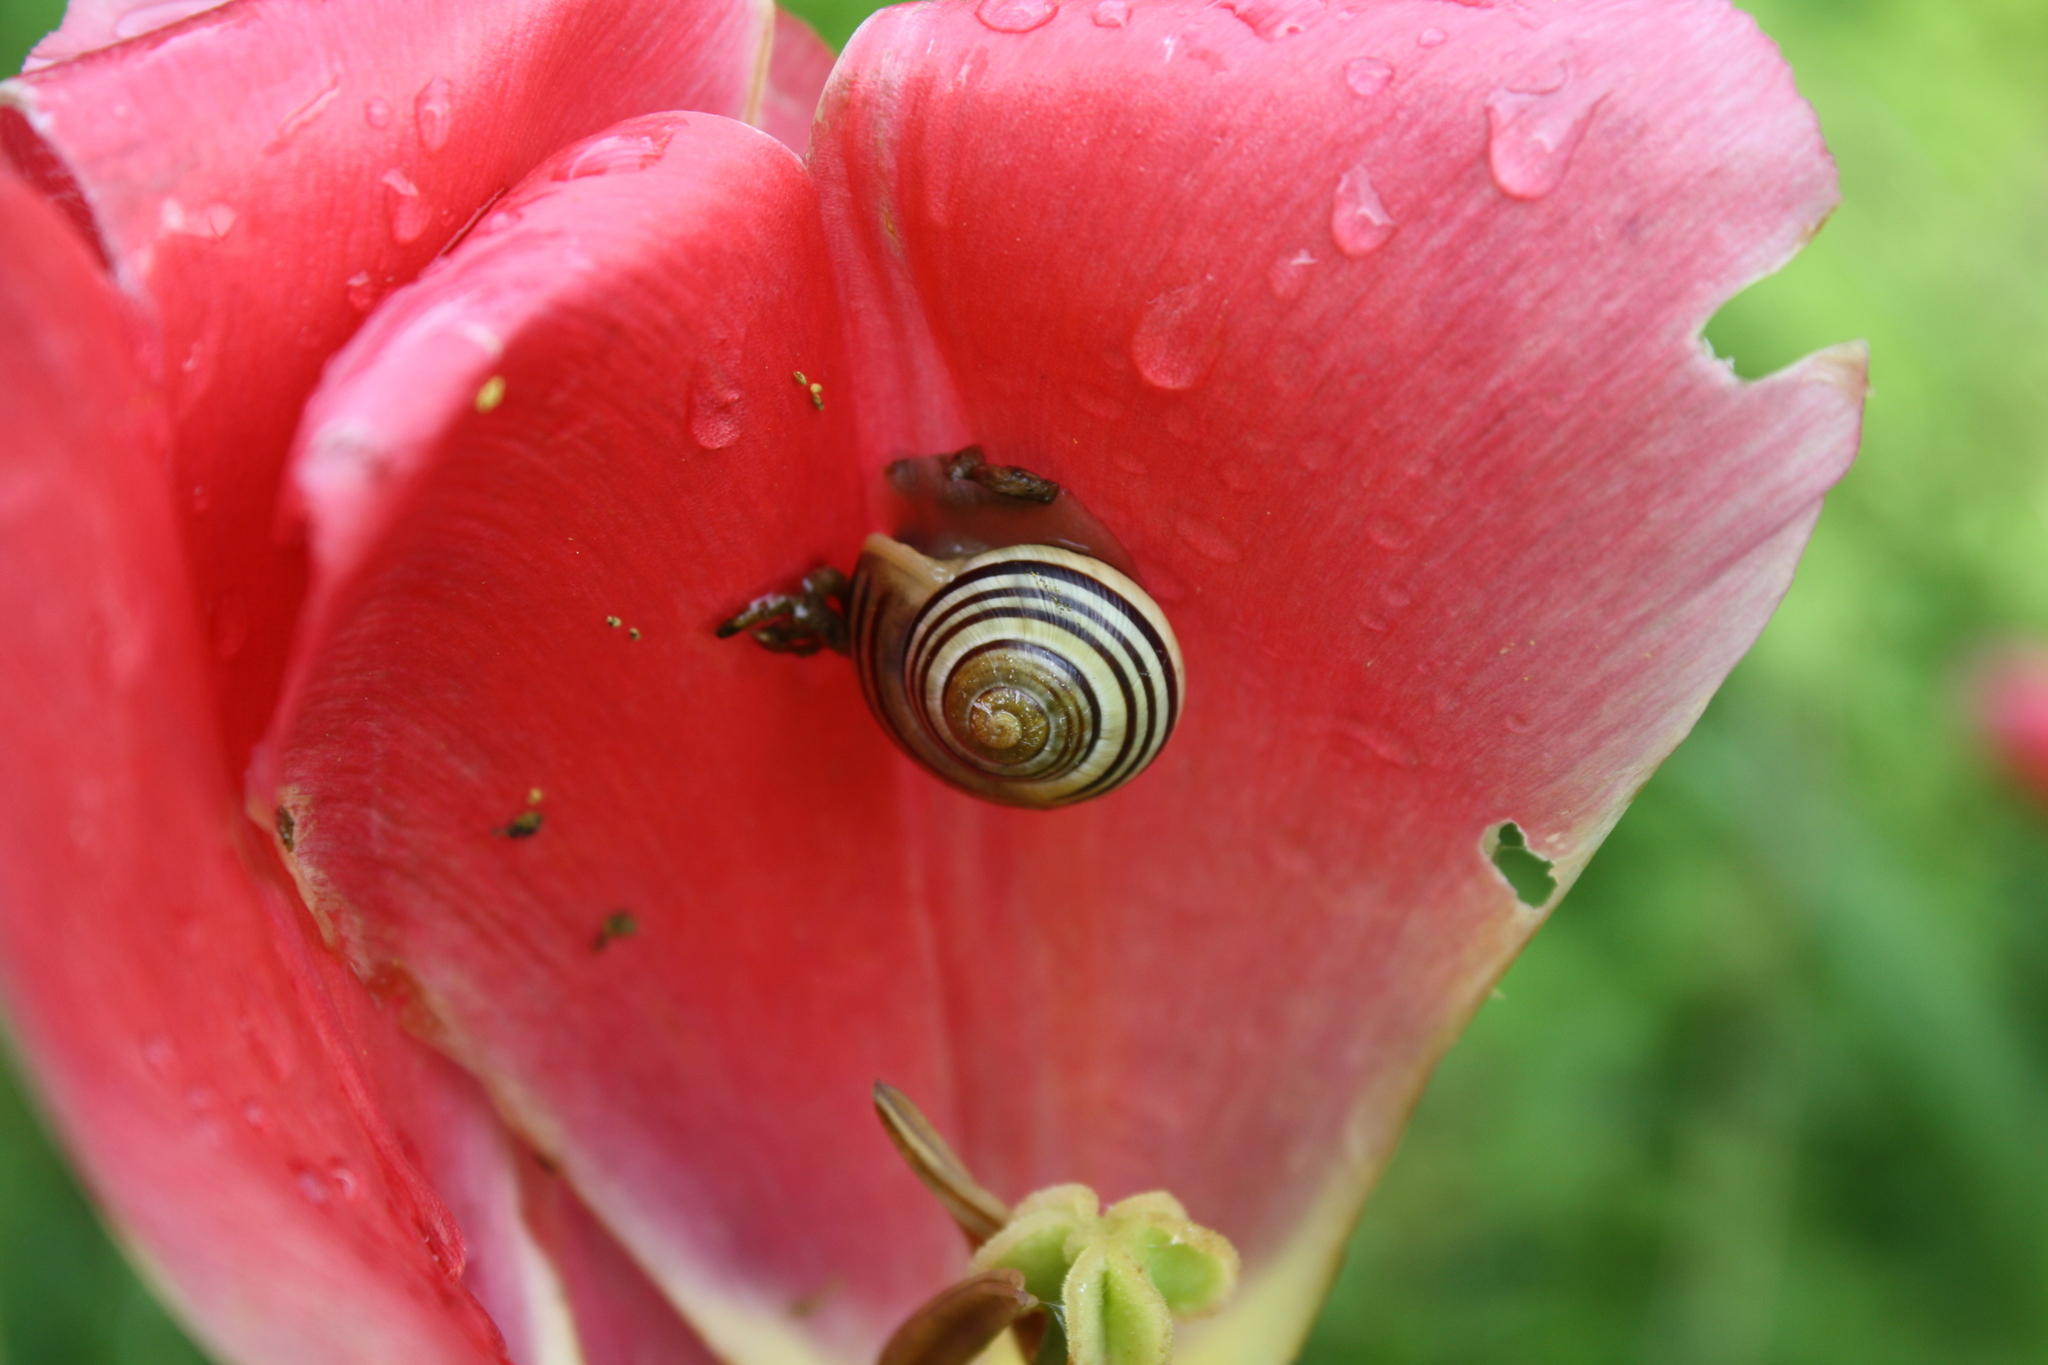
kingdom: Animalia
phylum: Mollusca
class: Gastropoda
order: Stylommatophora
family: Helicidae
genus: Cepaea
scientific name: Cepaea hortensis
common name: White-lip gardensnail
